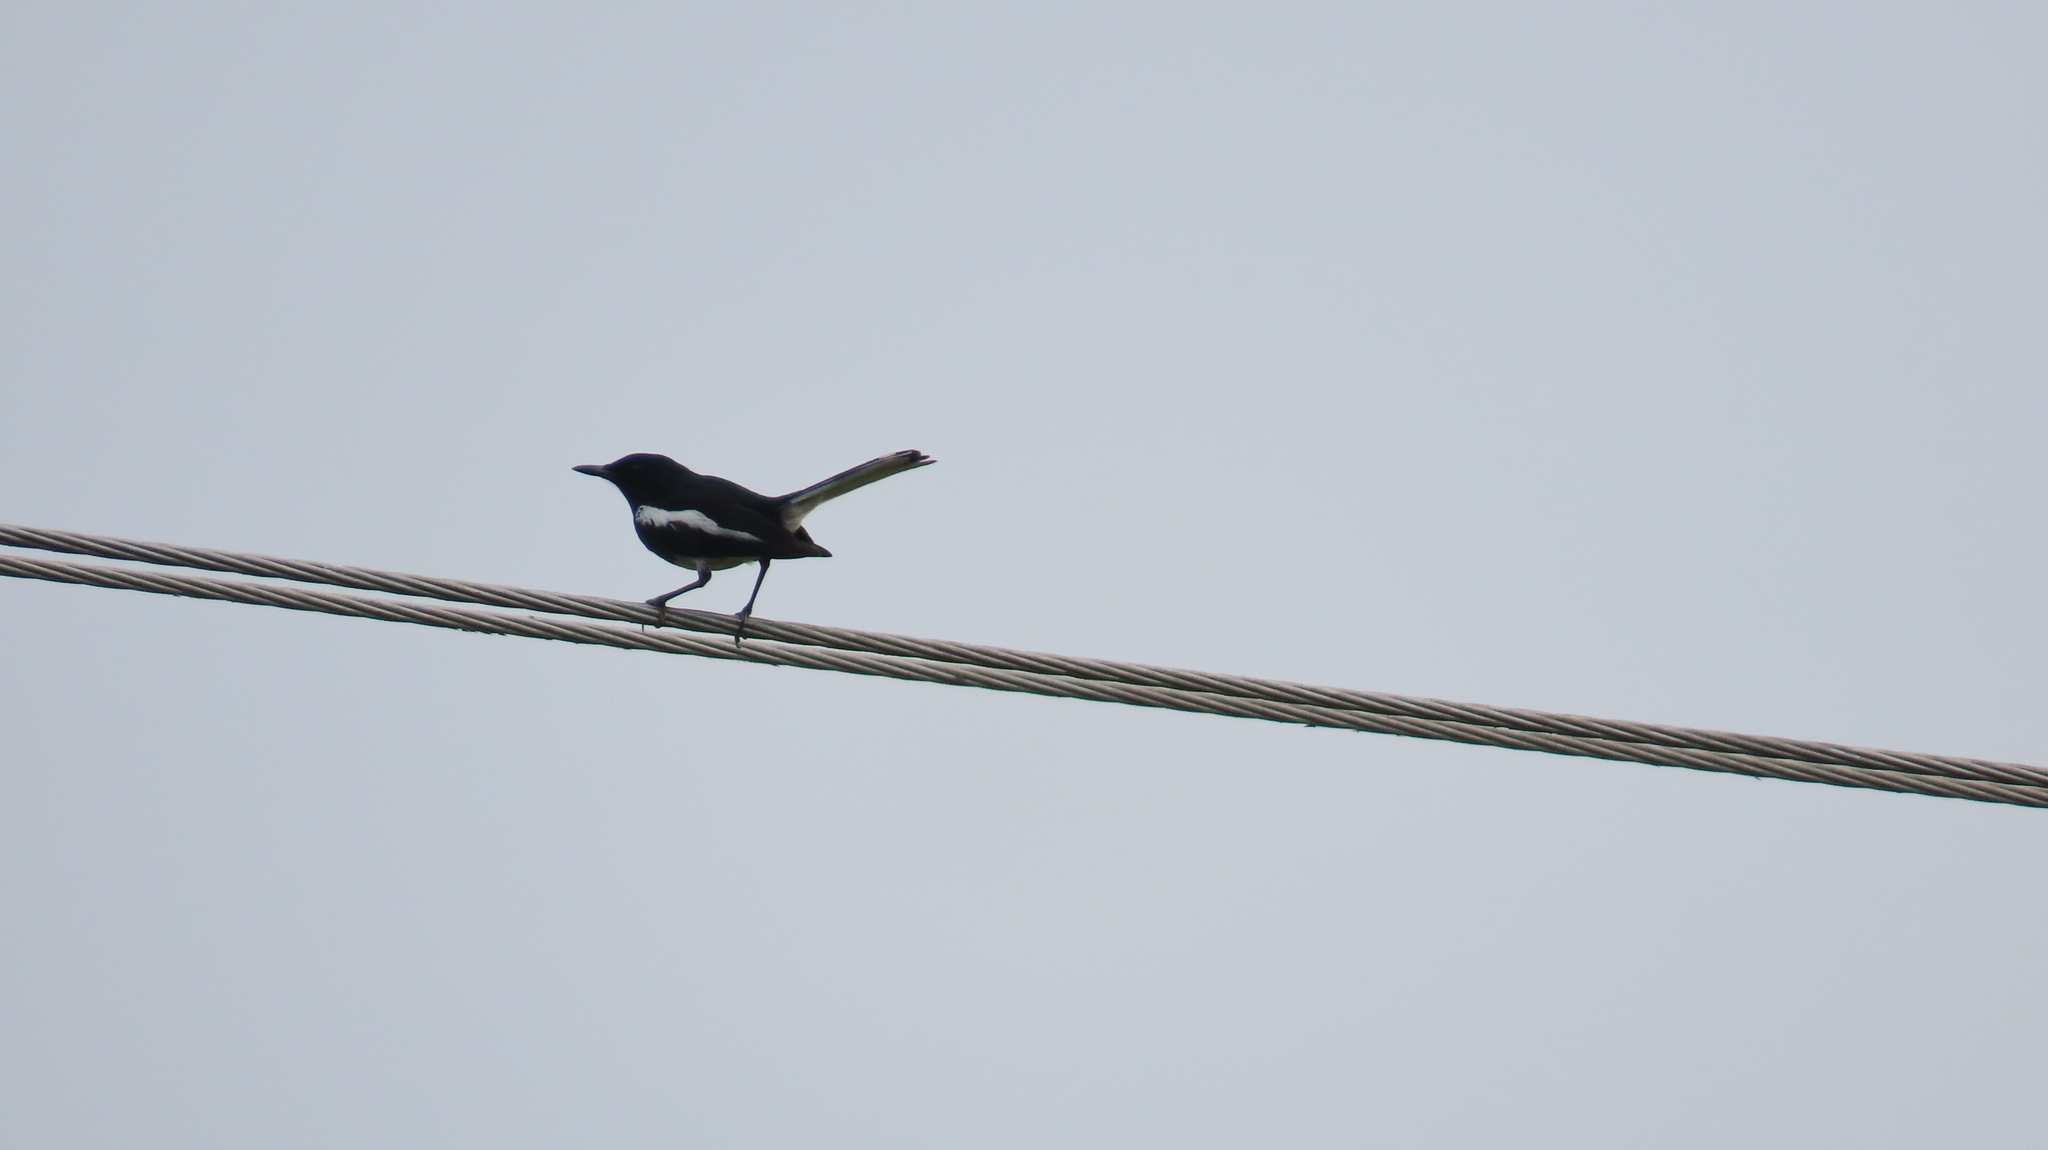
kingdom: Animalia
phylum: Chordata
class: Aves
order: Passeriformes
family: Muscicapidae
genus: Copsychus
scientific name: Copsychus saularis
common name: Oriental magpie-robin
